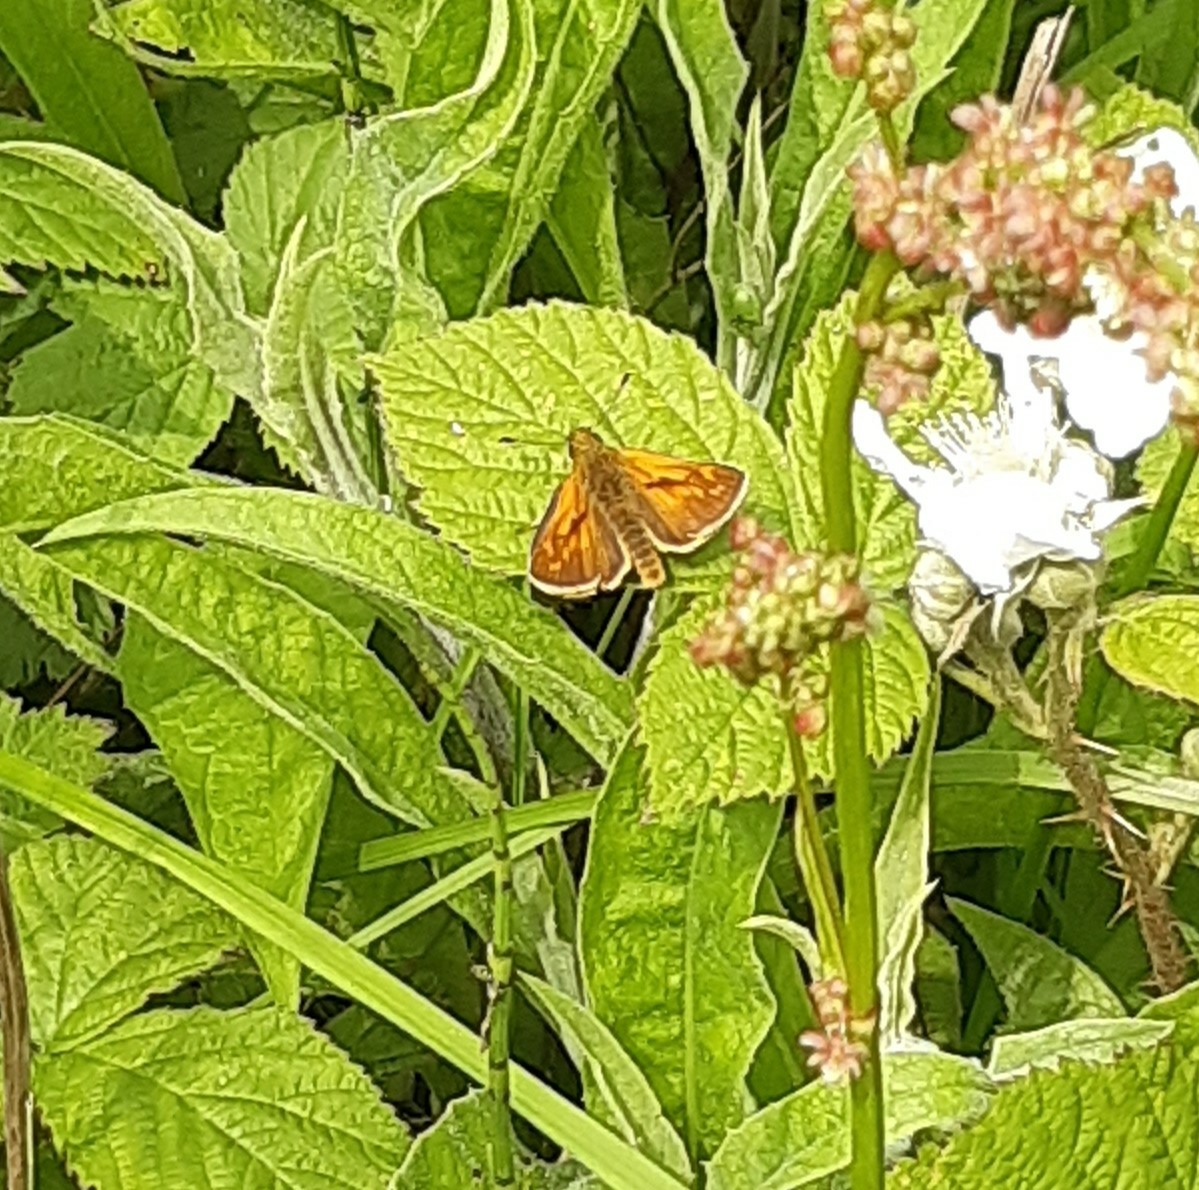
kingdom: Animalia
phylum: Arthropoda
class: Insecta
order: Lepidoptera
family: Hesperiidae
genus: Ochlodes
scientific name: Ochlodes venata
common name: Large skipper
